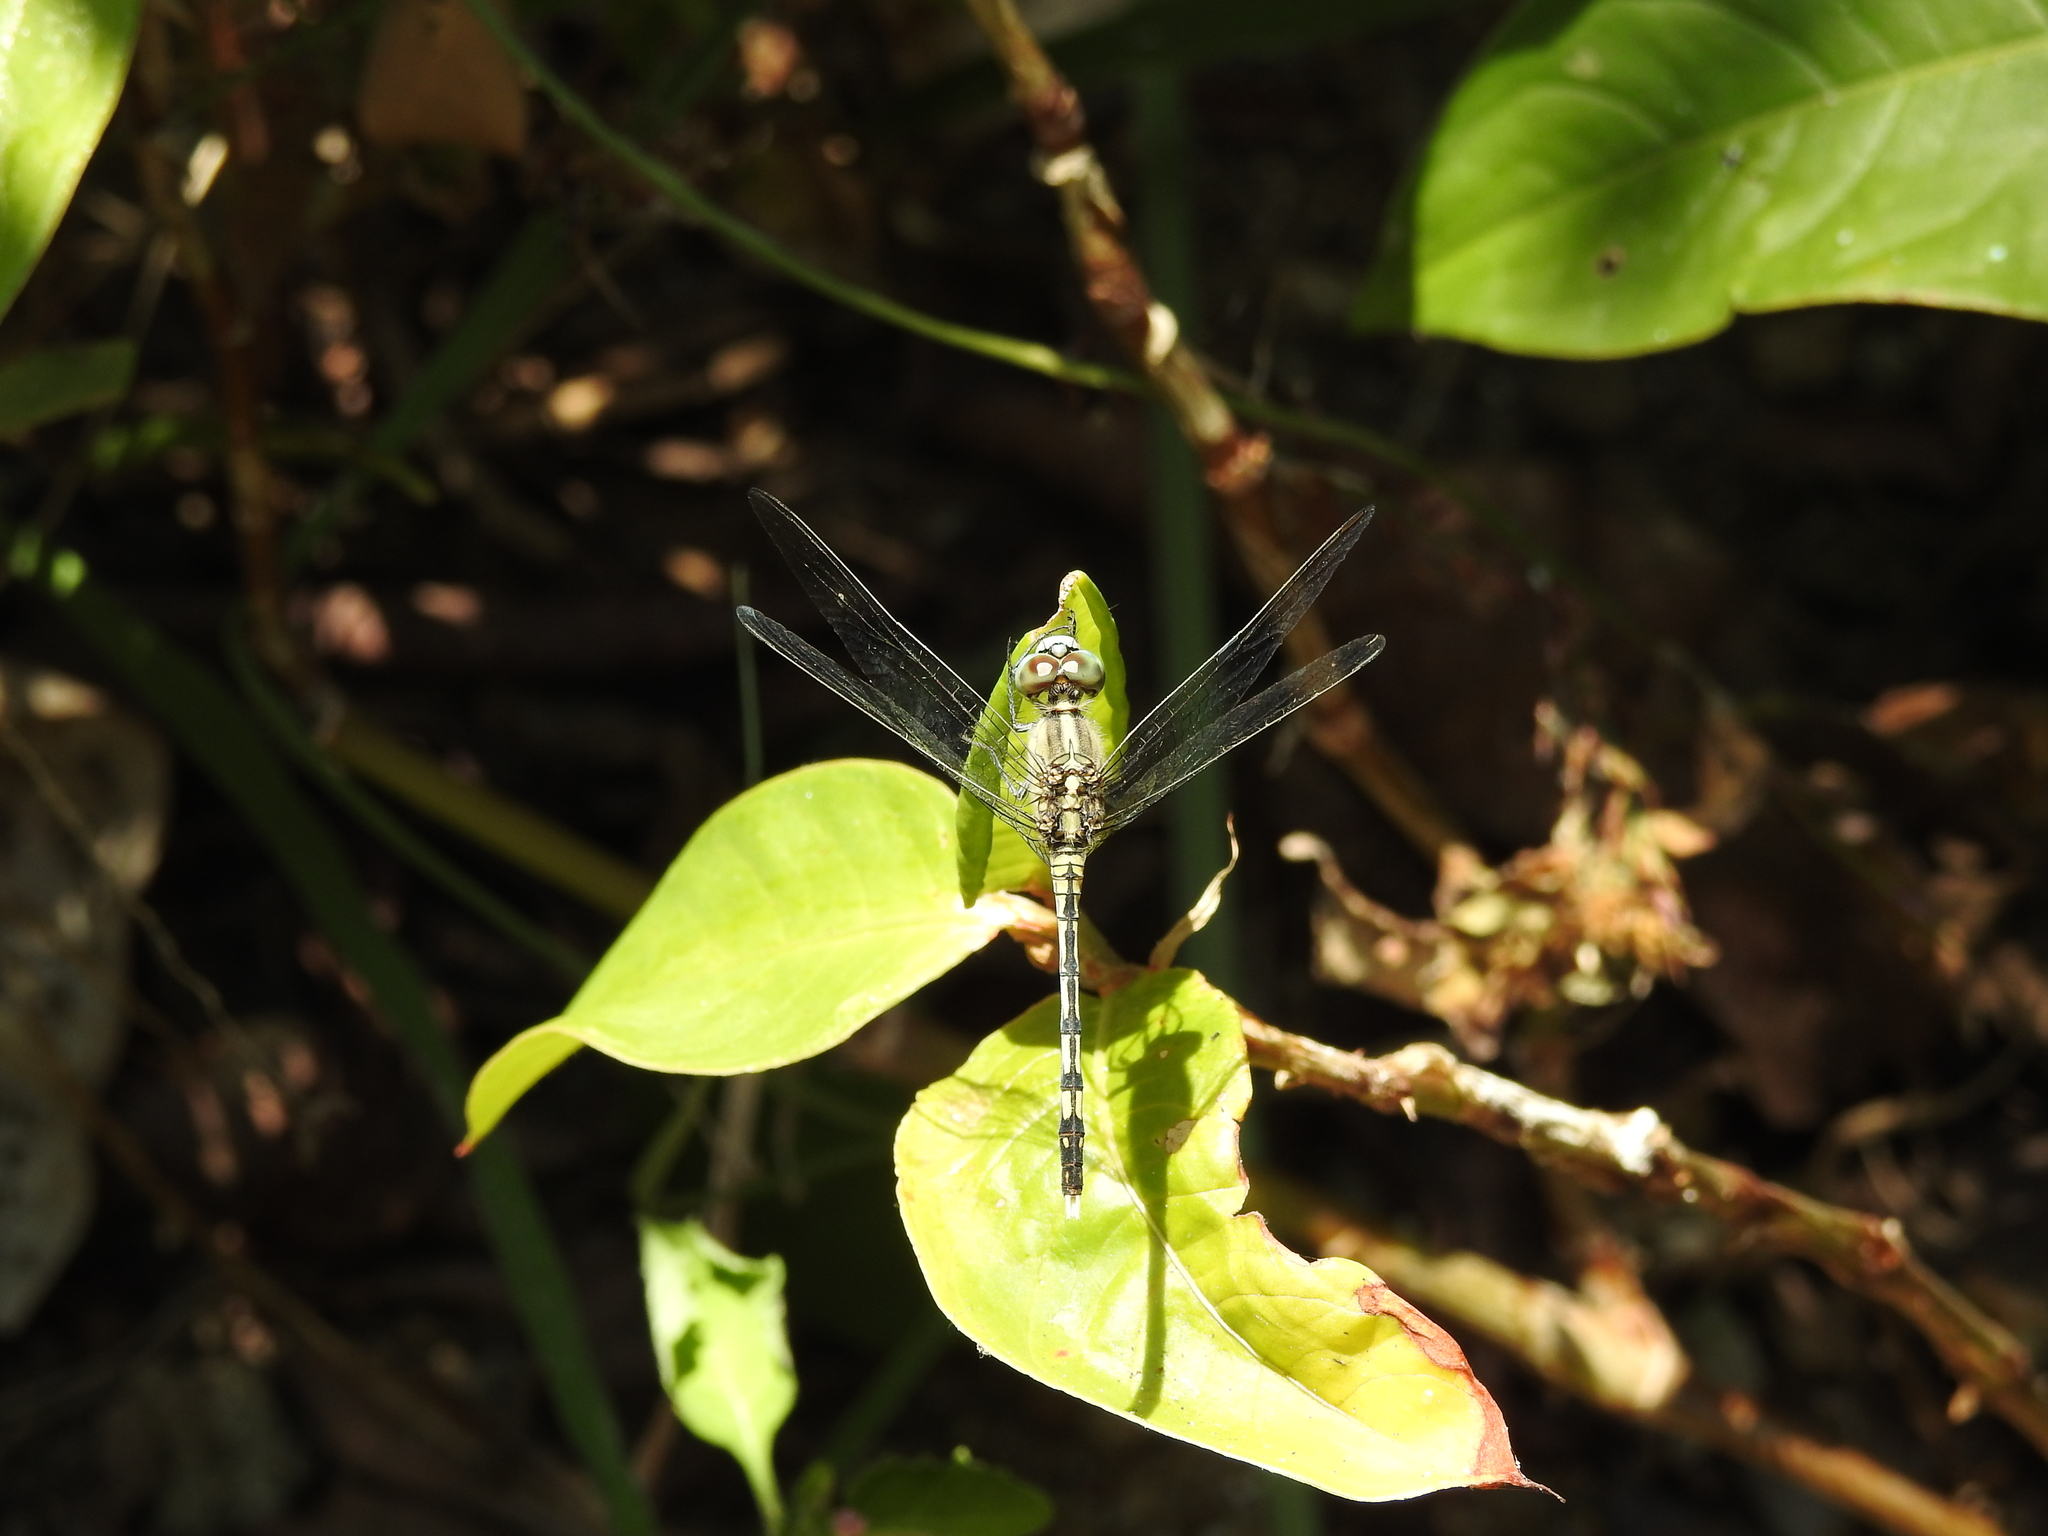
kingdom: Animalia
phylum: Arthropoda
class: Insecta
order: Odonata
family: Libellulidae
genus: Diplacodes
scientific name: Diplacodes trivialis
